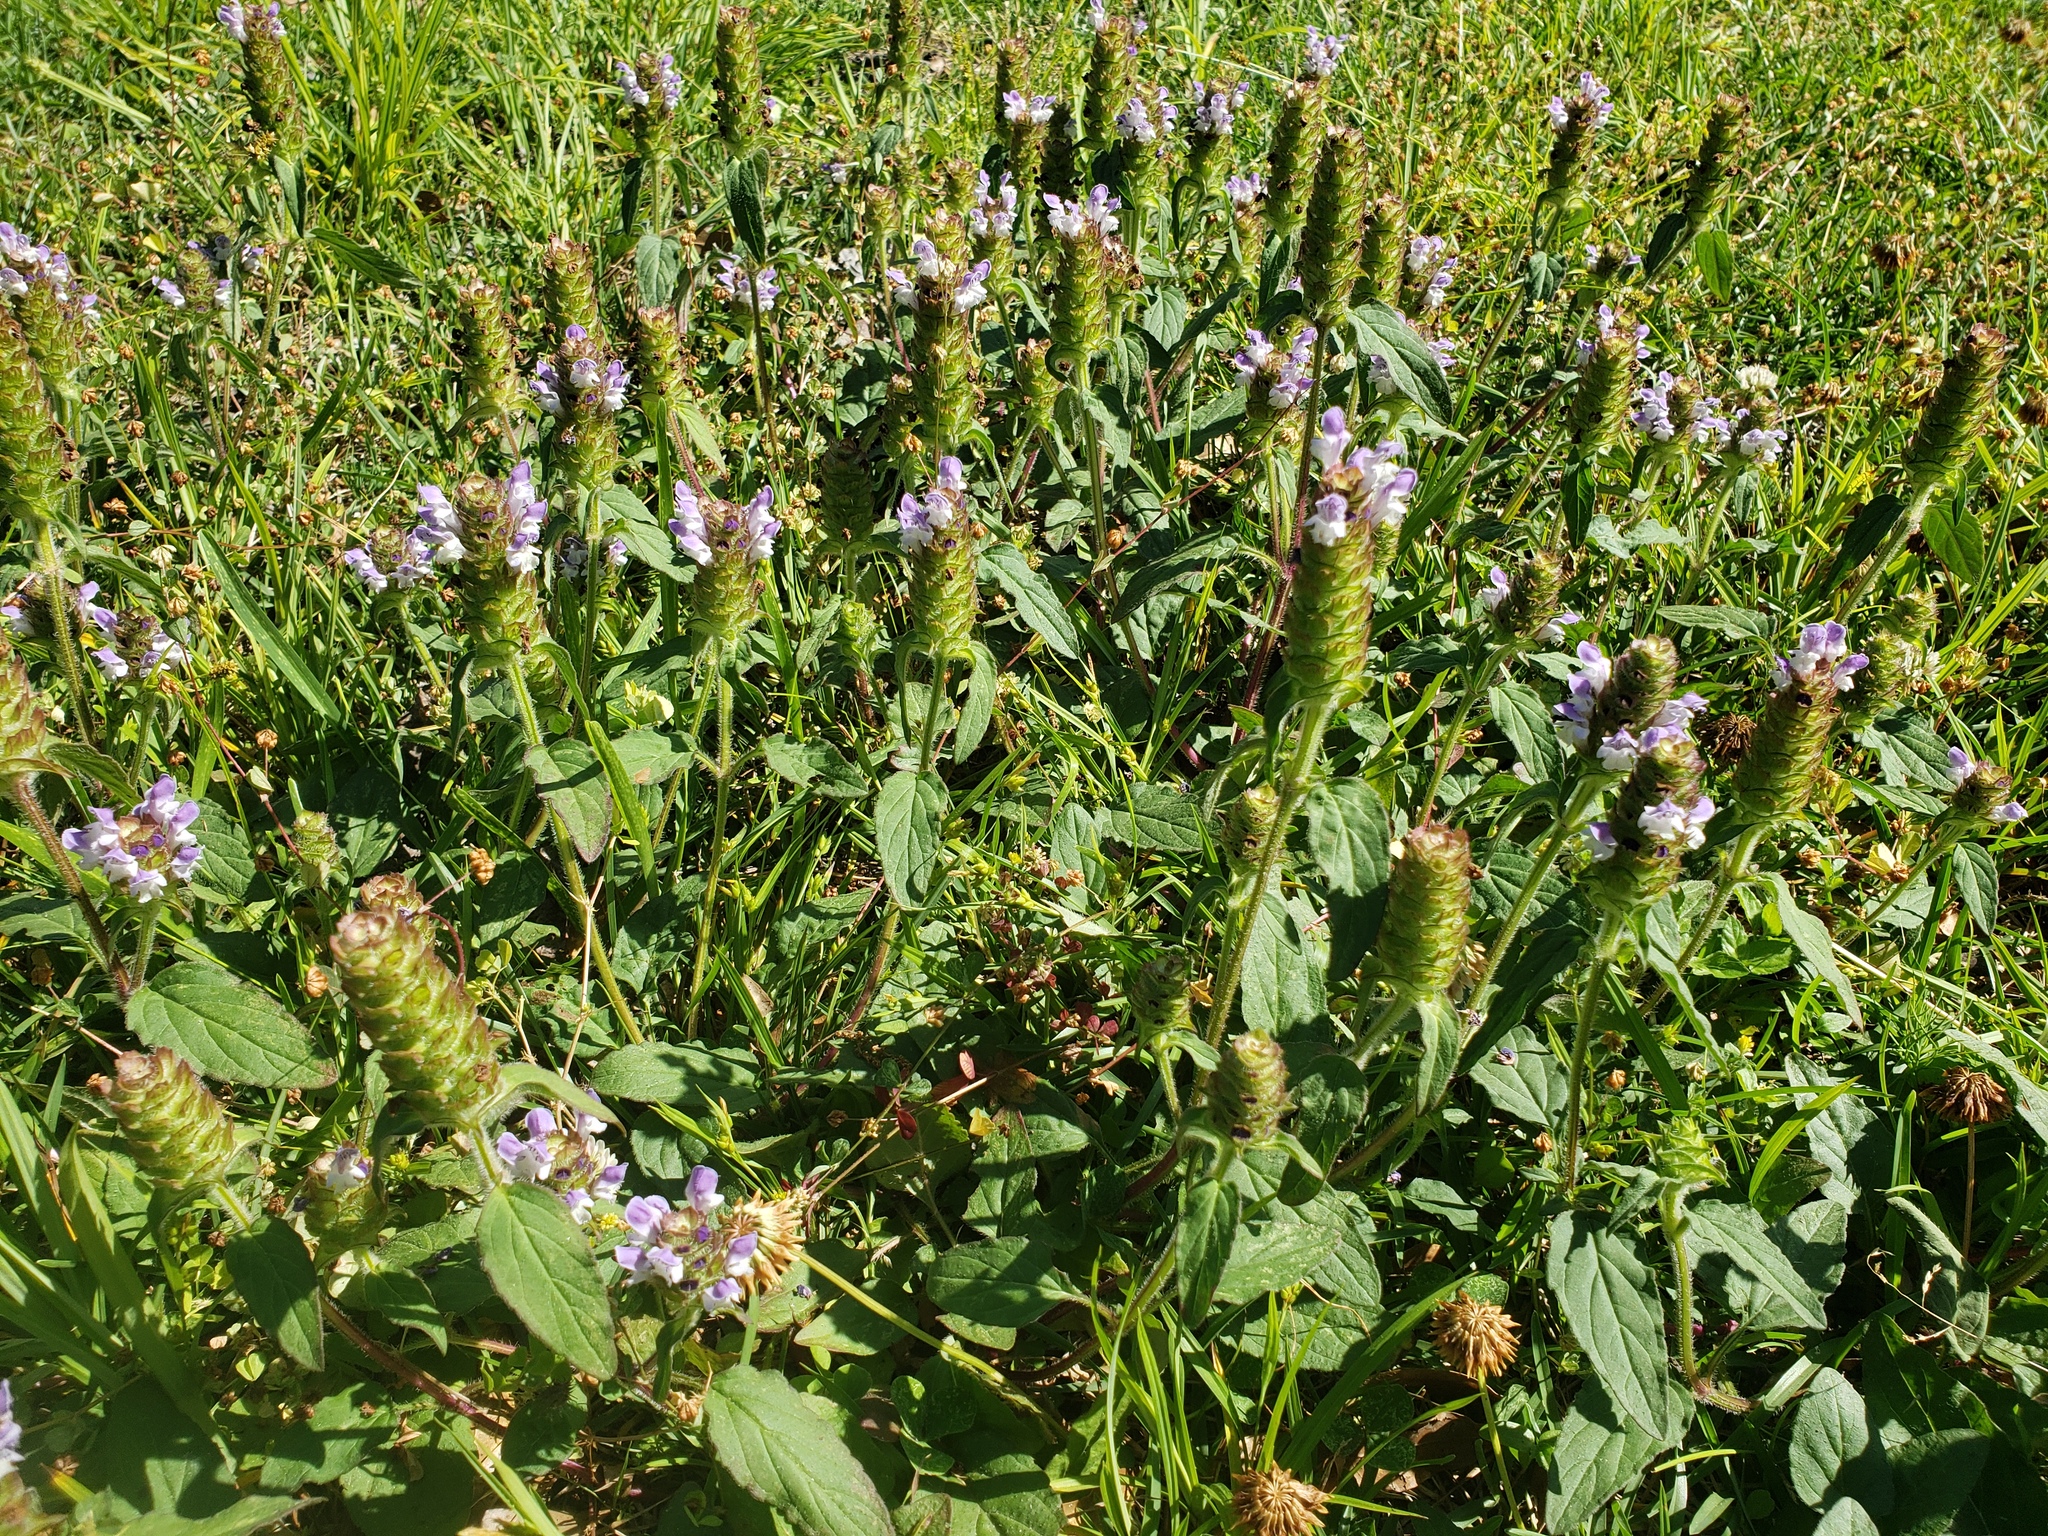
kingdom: Plantae
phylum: Tracheophyta
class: Magnoliopsida
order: Lamiales
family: Lamiaceae
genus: Prunella
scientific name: Prunella vulgaris
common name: Heal-all
